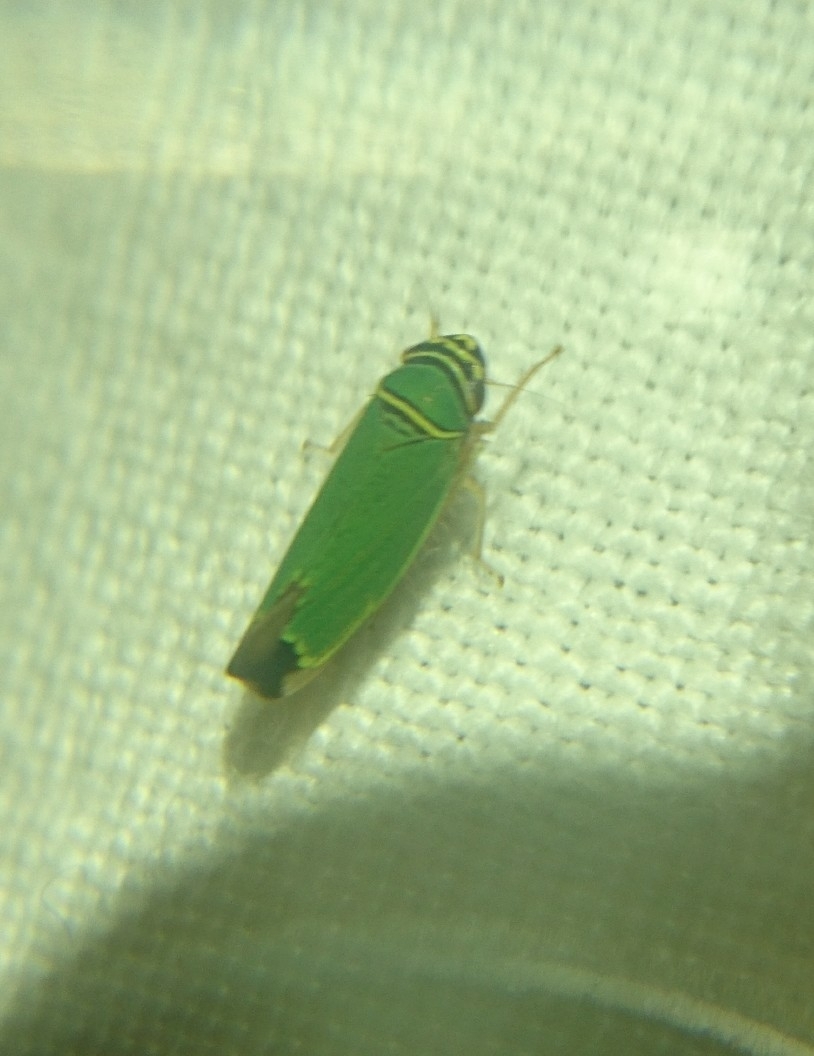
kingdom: Animalia
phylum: Arthropoda
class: Insecta
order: Hemiptera
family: Cicadellidae
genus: Tylozygus
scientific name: Tylozygus geometricus
